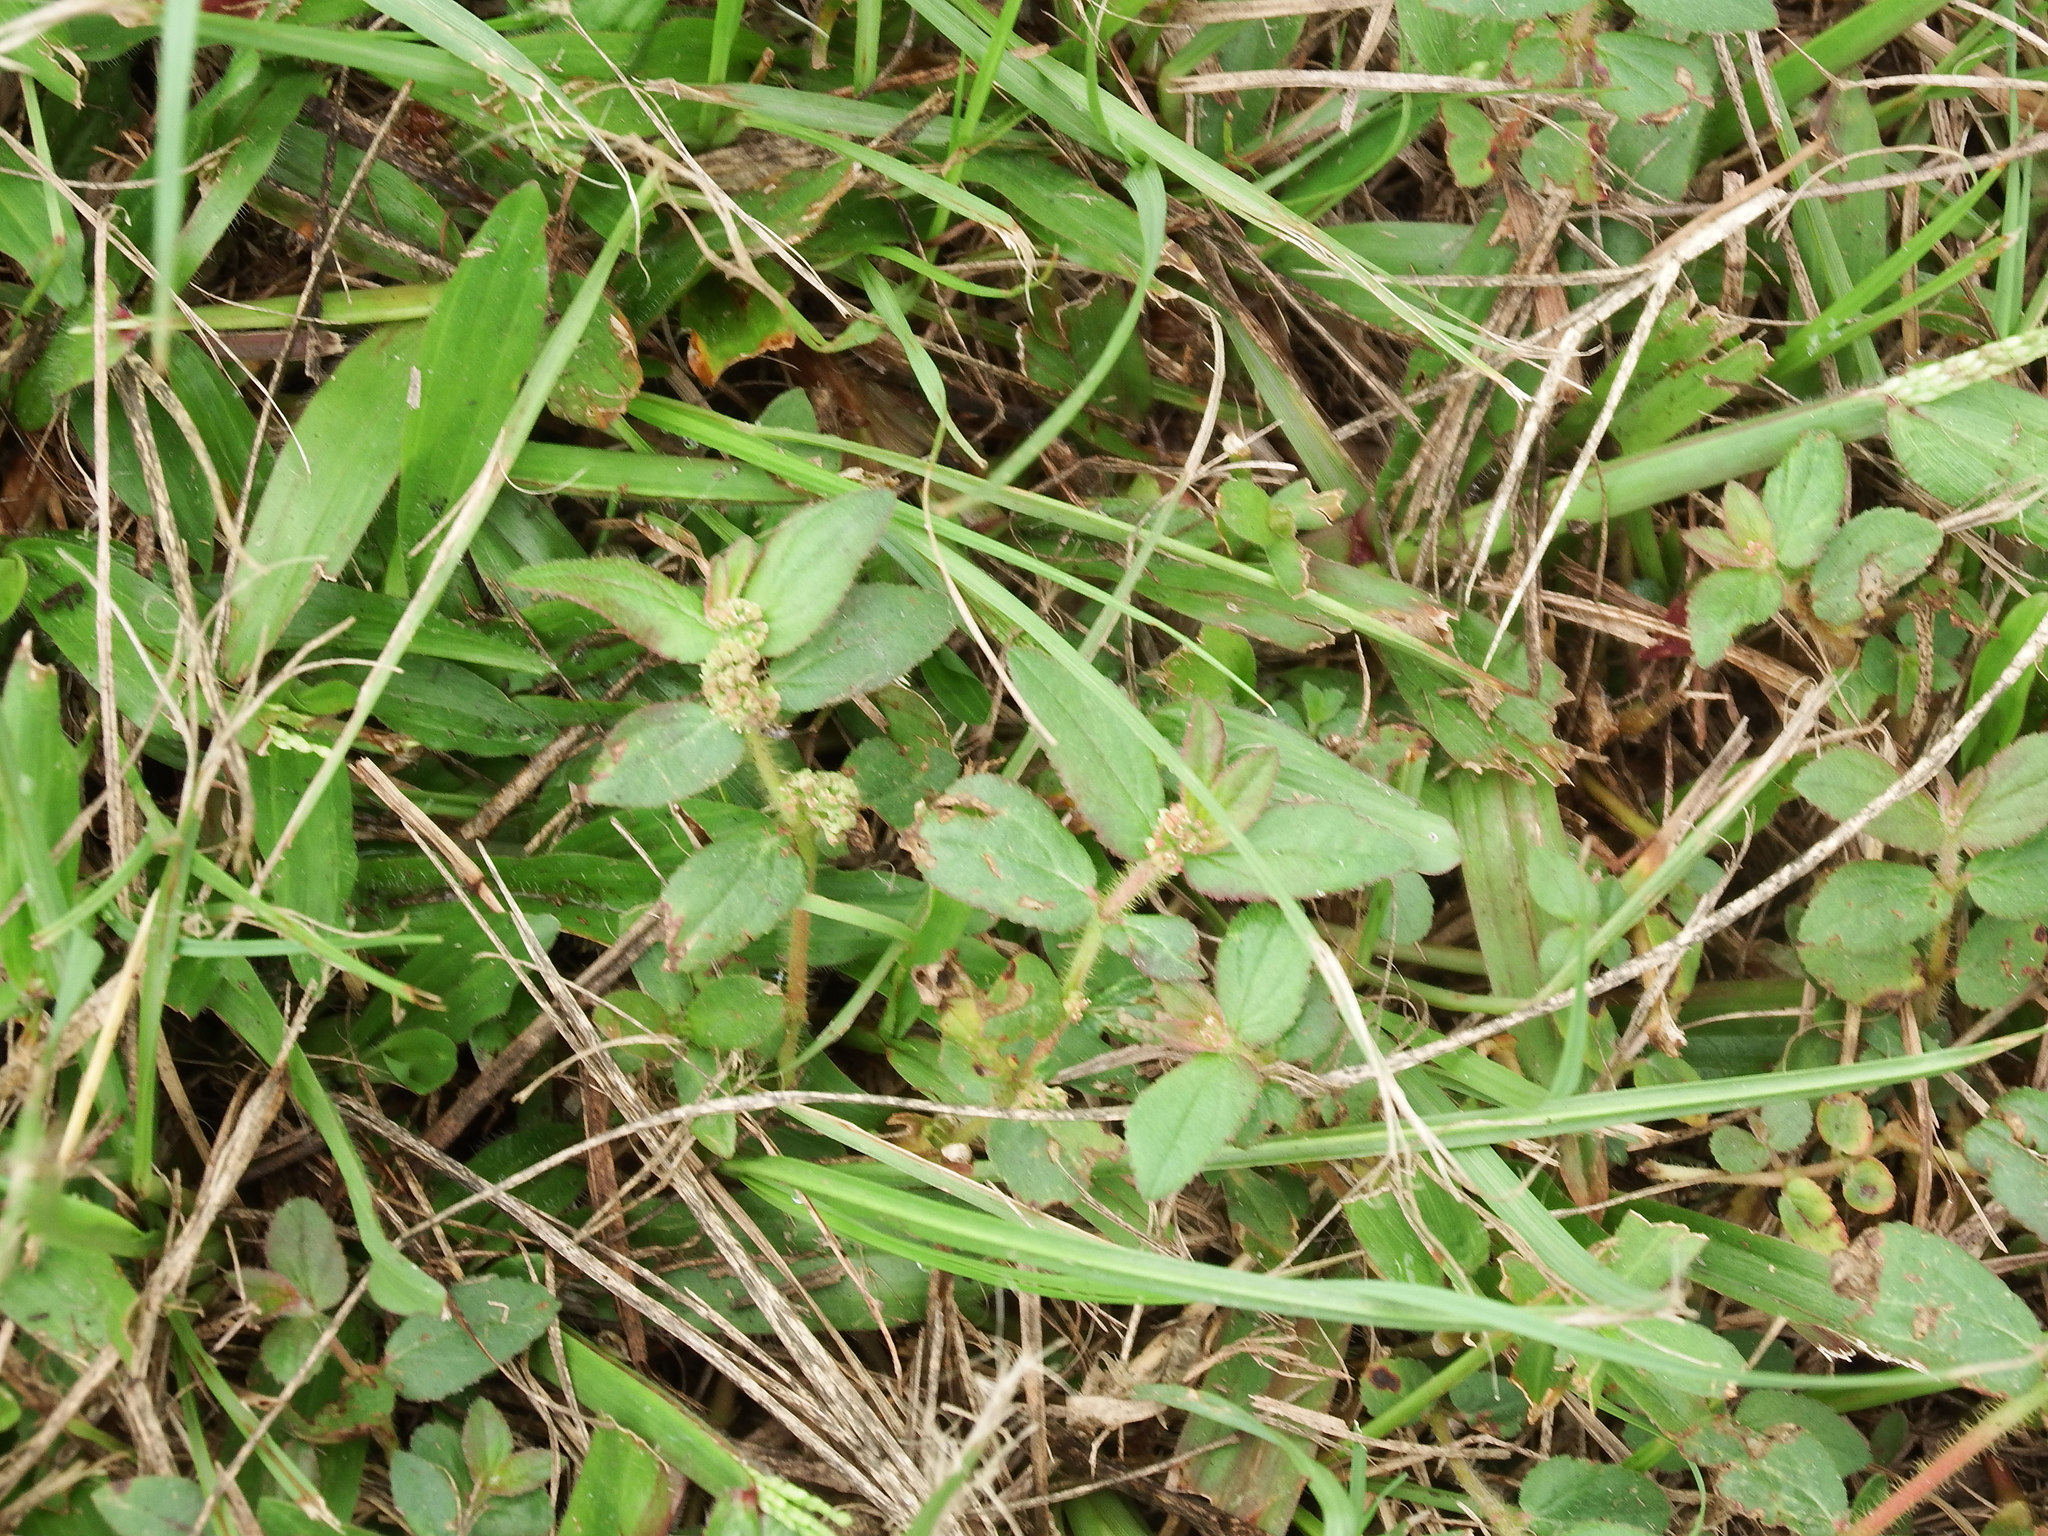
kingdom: Plantae
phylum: Tracheophyta
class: Magnoliopsida
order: Malpighiales
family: Euphorbiaceae
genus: Euphorbia
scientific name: Euphorbia hirta
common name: Pillpod sandmat
